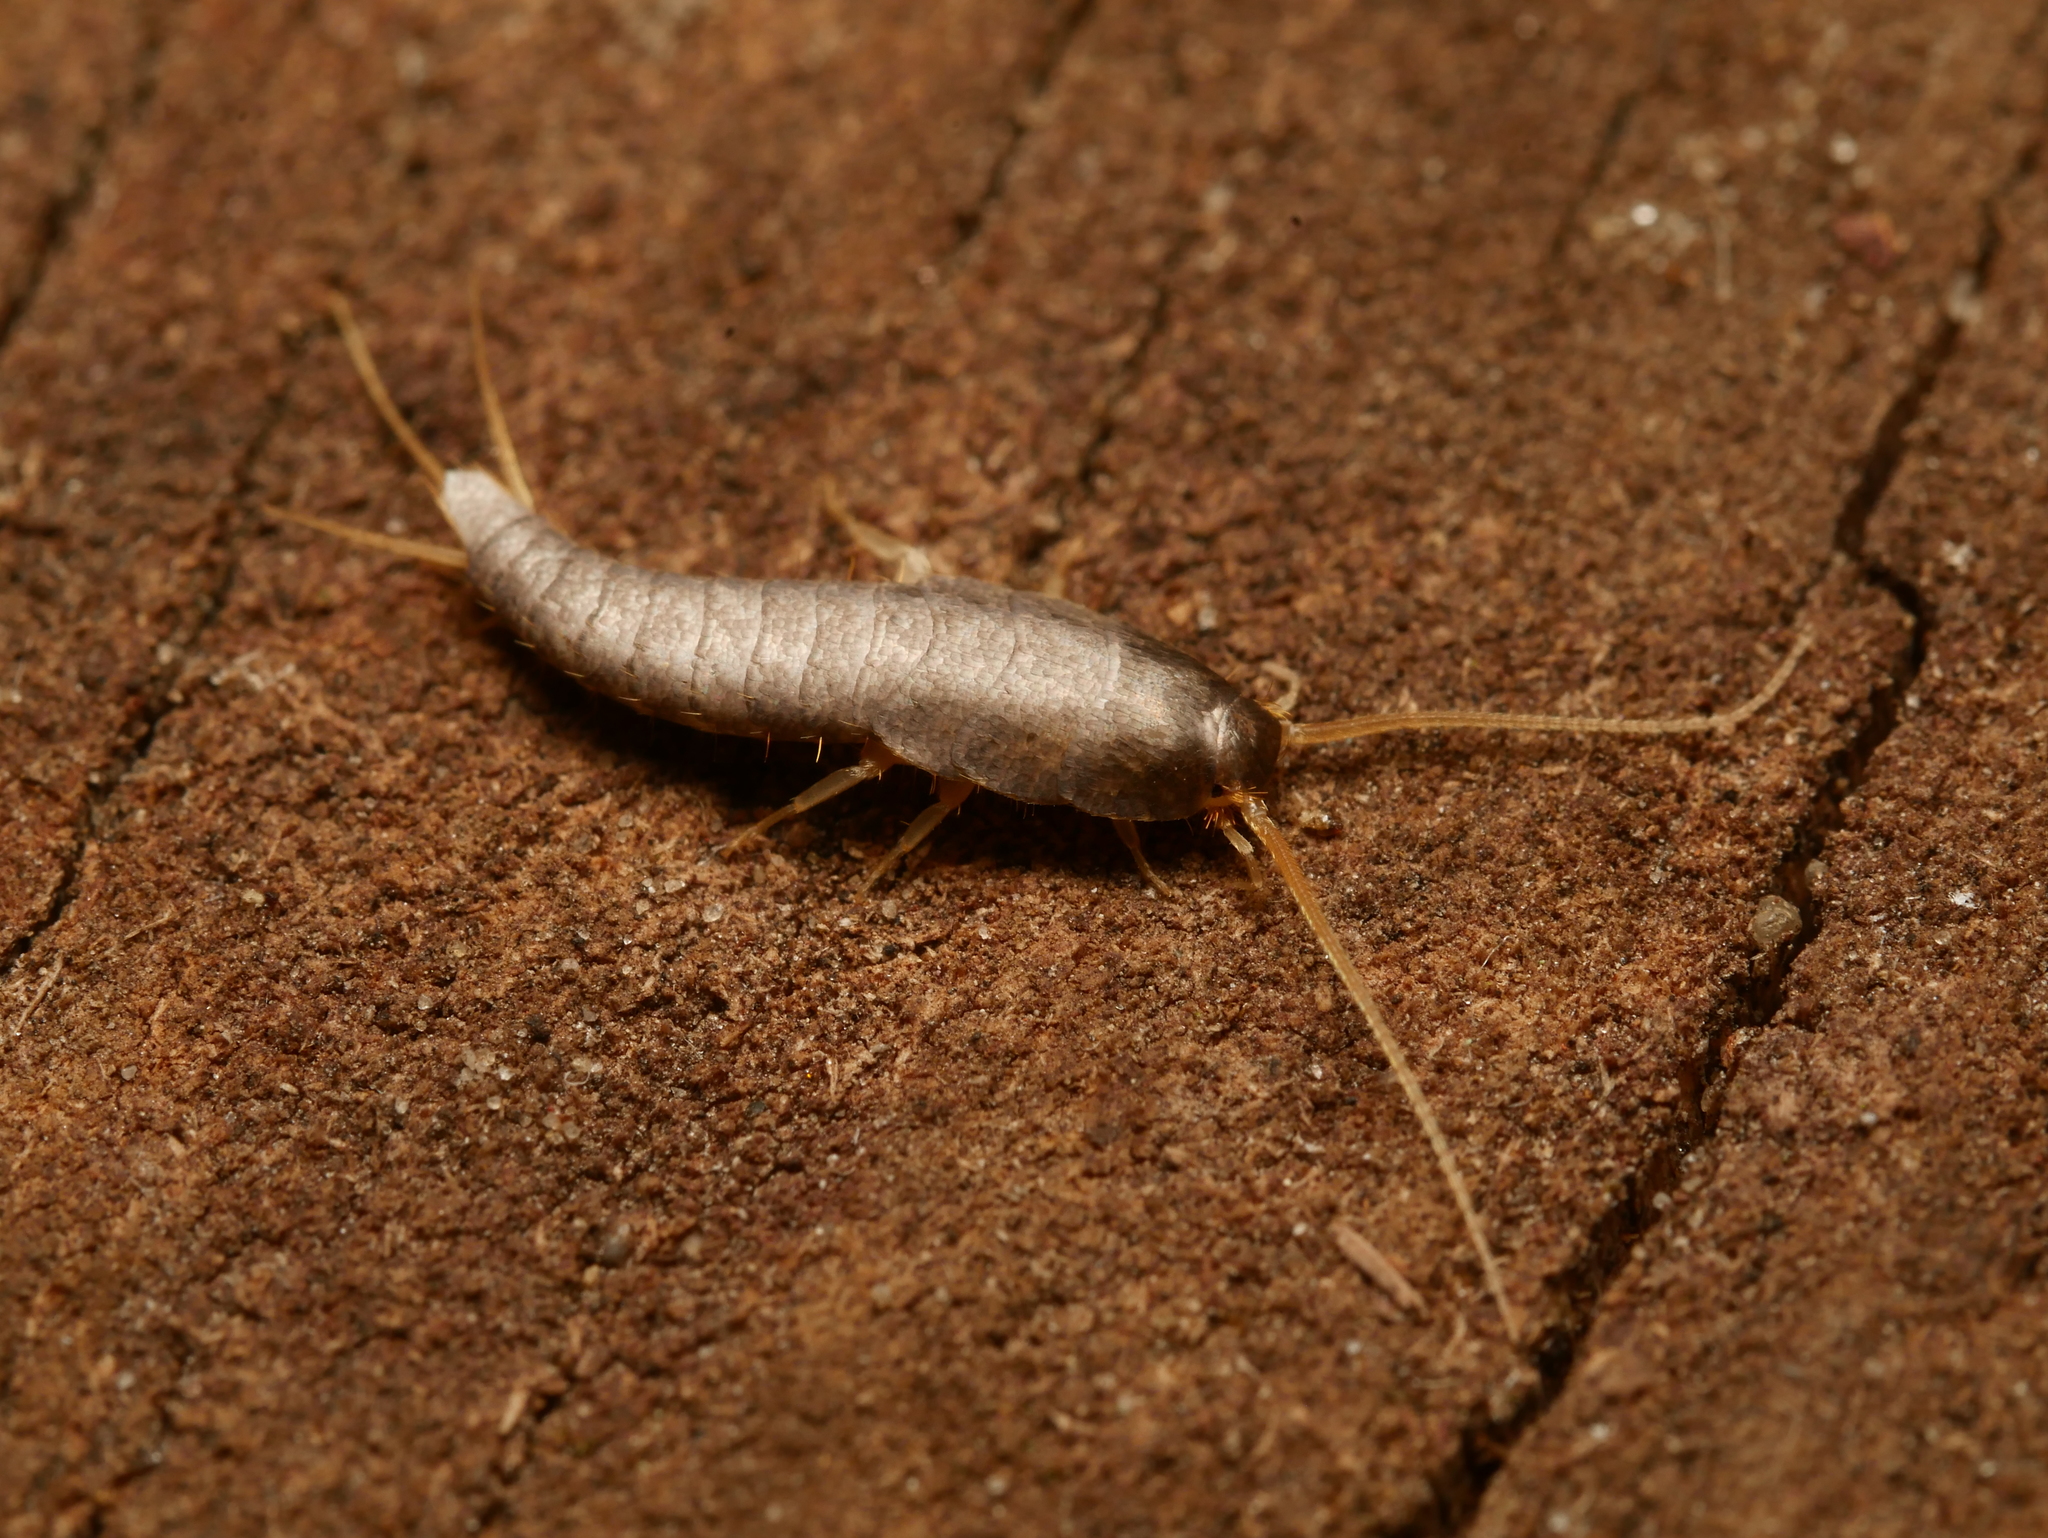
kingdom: Animalia
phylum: Arthropoda
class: Insecta
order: Zygentoma
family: Lepismatidae
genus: Lepisma
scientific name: Lepisma saccharinum
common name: Silverfish
